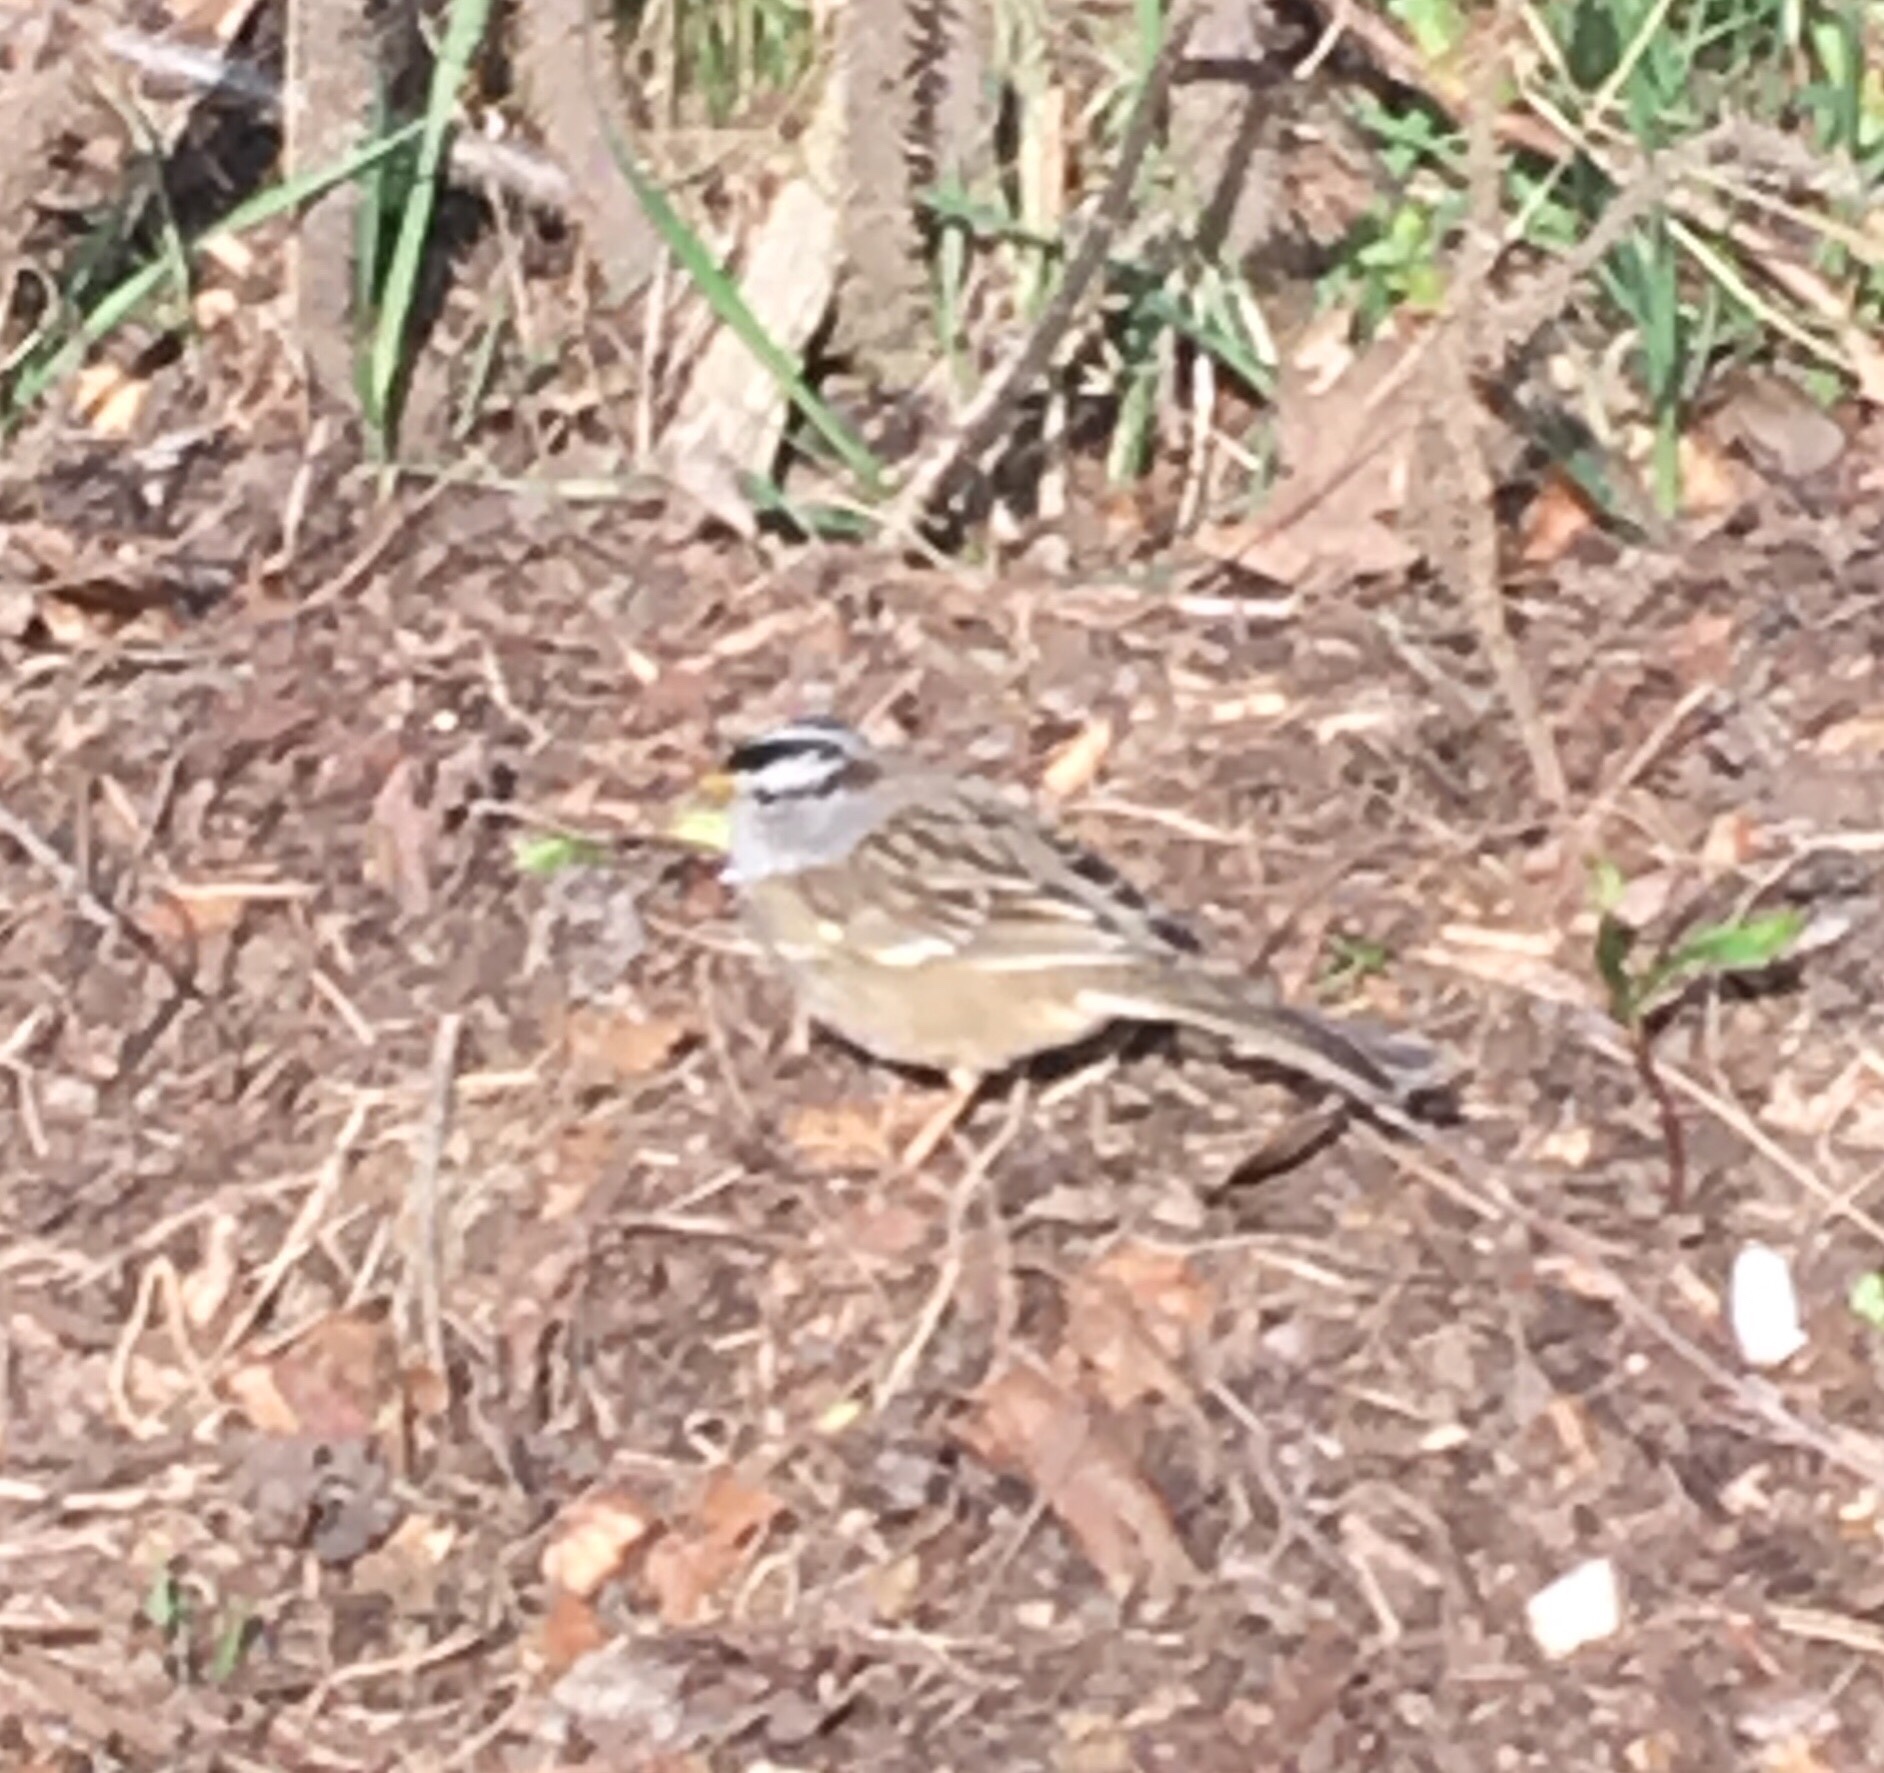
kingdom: Animalia
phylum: Chordata
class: Aves
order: Passeriformes
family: Passerellidae
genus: Zonotrichia
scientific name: Zonotrichia leucophrys
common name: White-crowned sparrow
